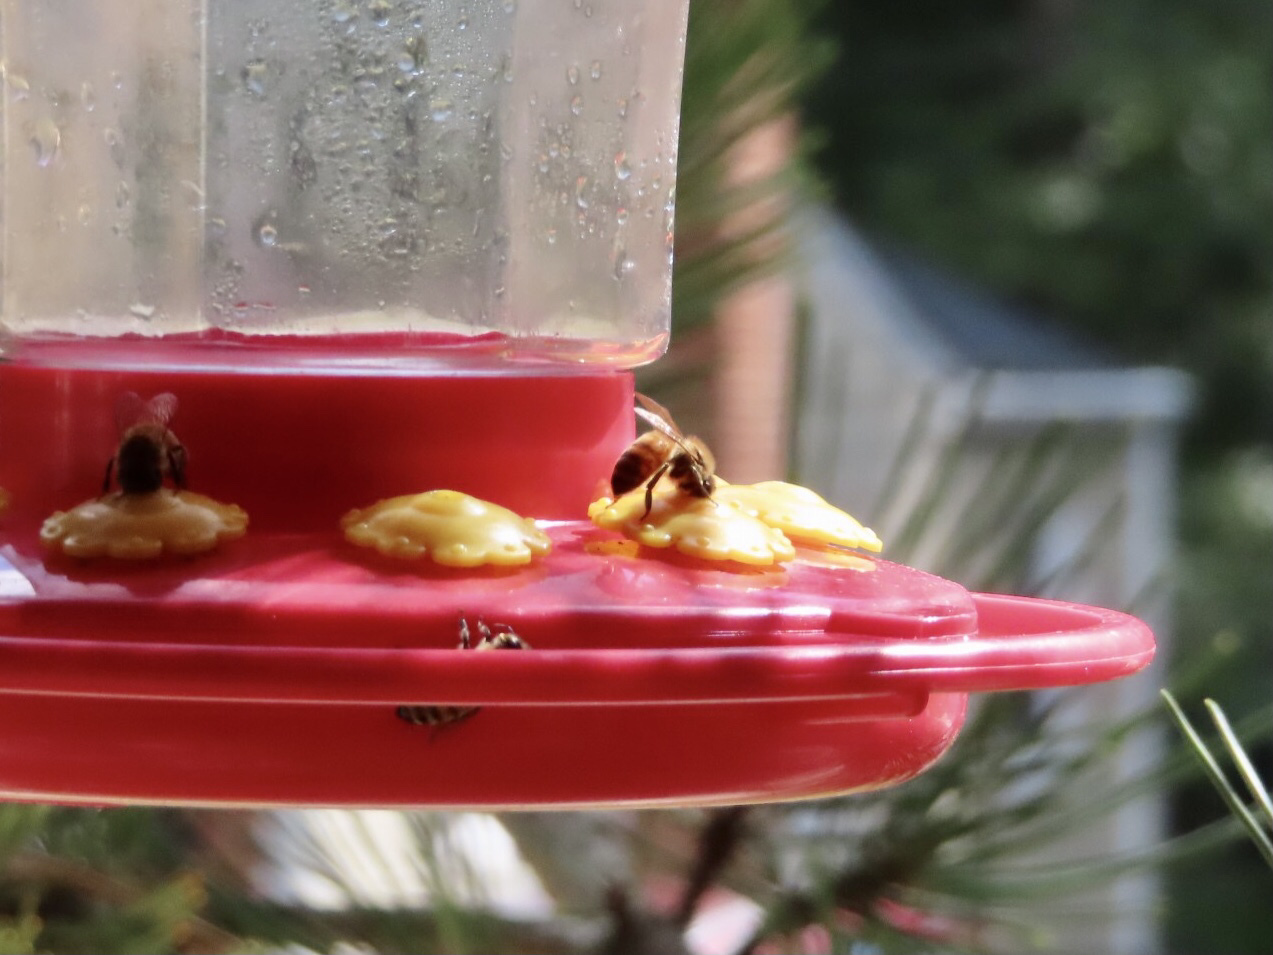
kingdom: Animalia
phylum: Arthropoda
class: Insecta
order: Hymenoptera
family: Apidae
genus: Apis
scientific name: Apis mellifera
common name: Honey bee
